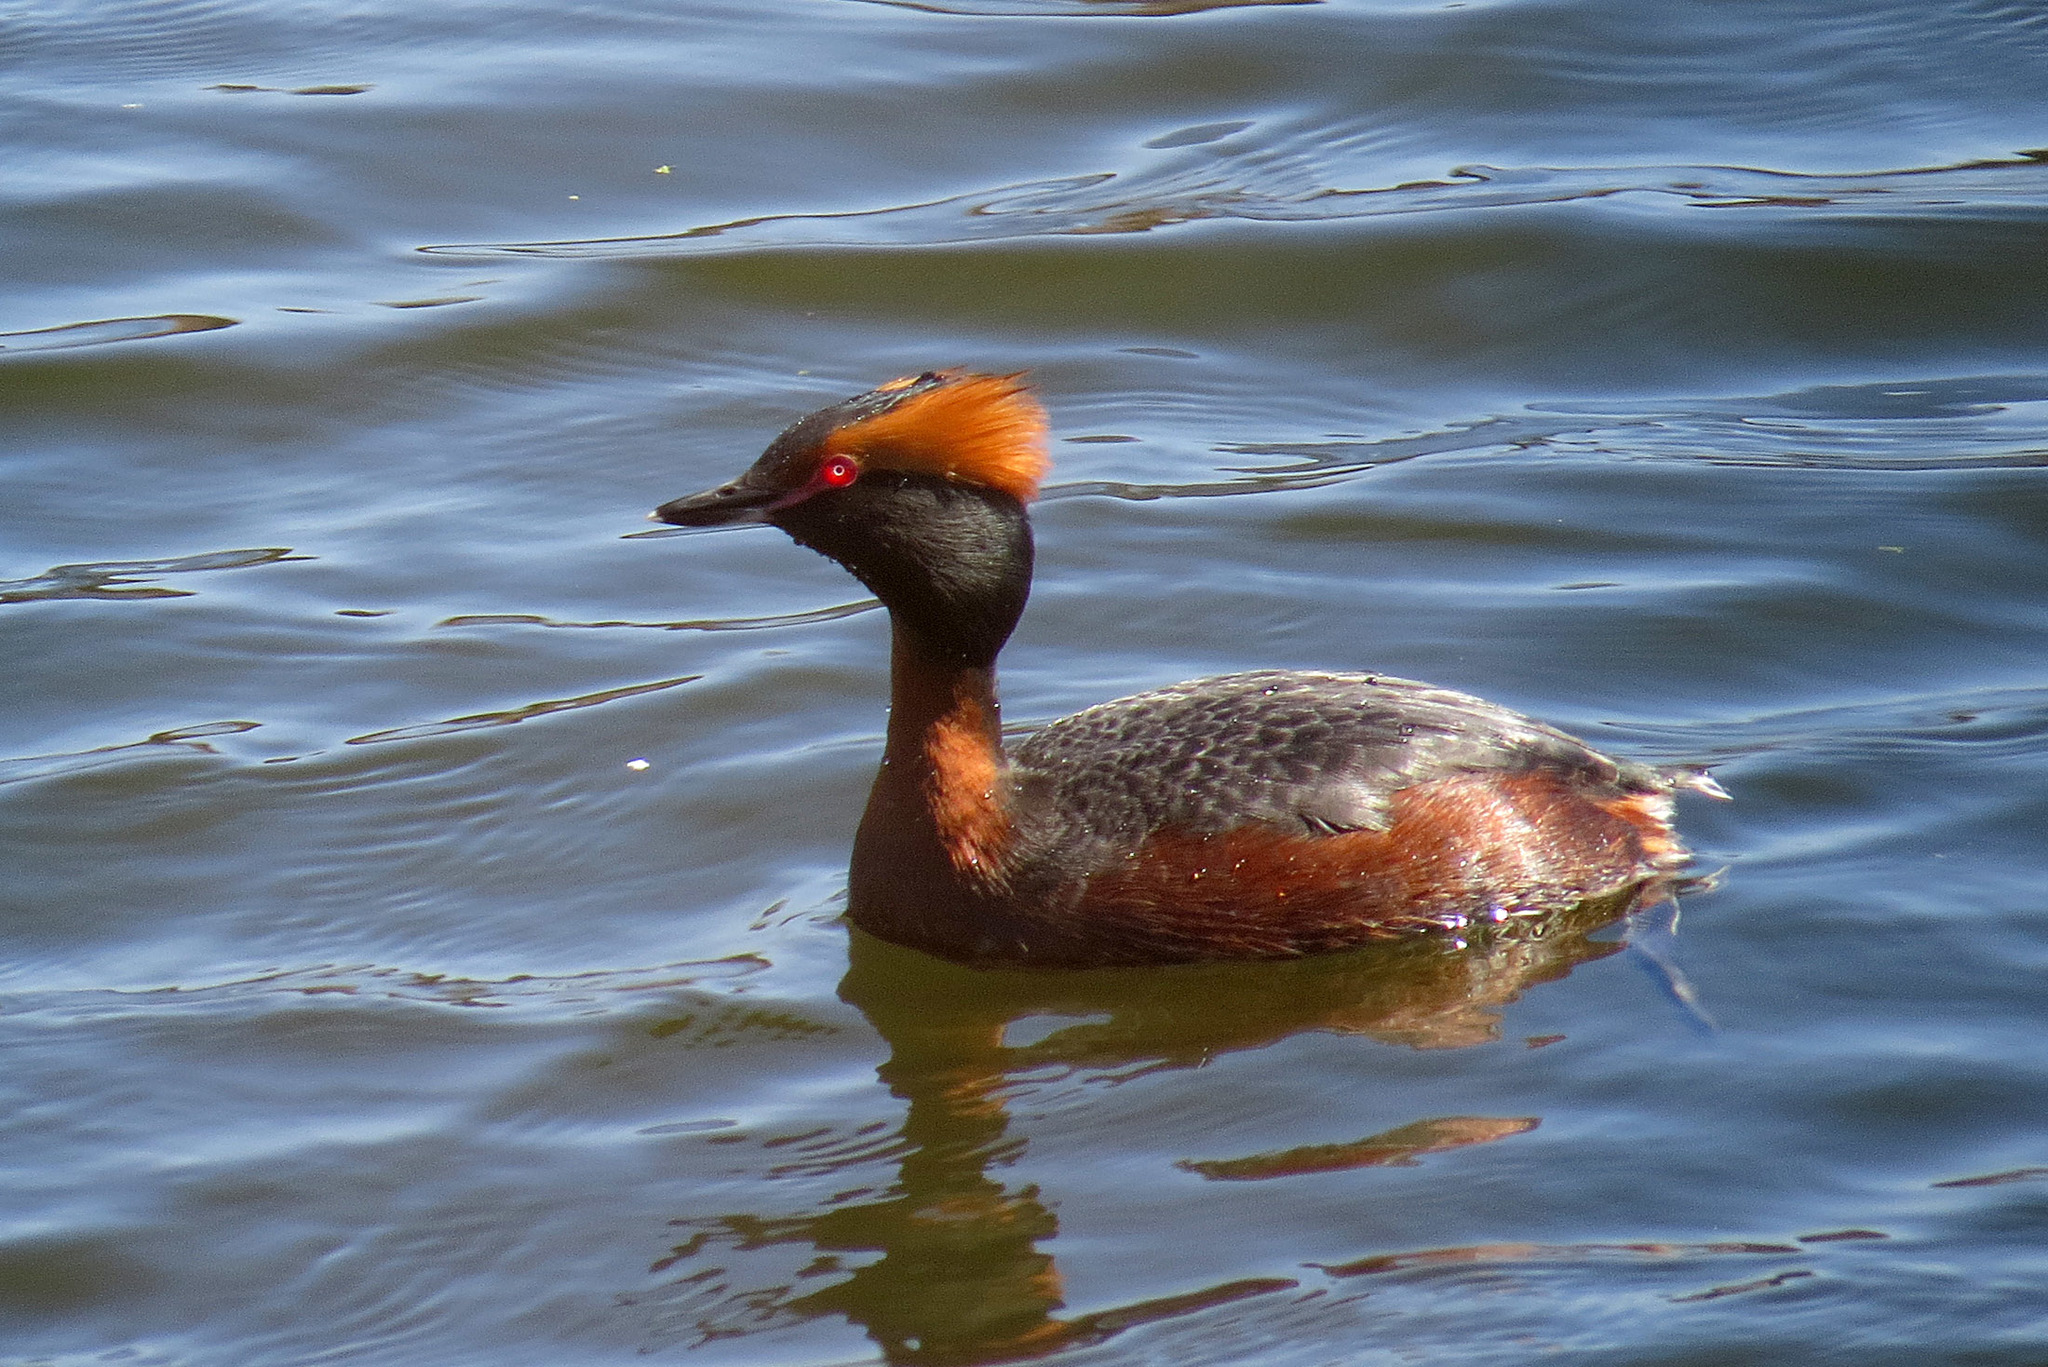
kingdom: Animalia
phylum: Chordata
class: Aves
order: Podicipediformes
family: Podicipedidae
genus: Podiceps
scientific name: Podiceps auritus
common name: Horned grebe
